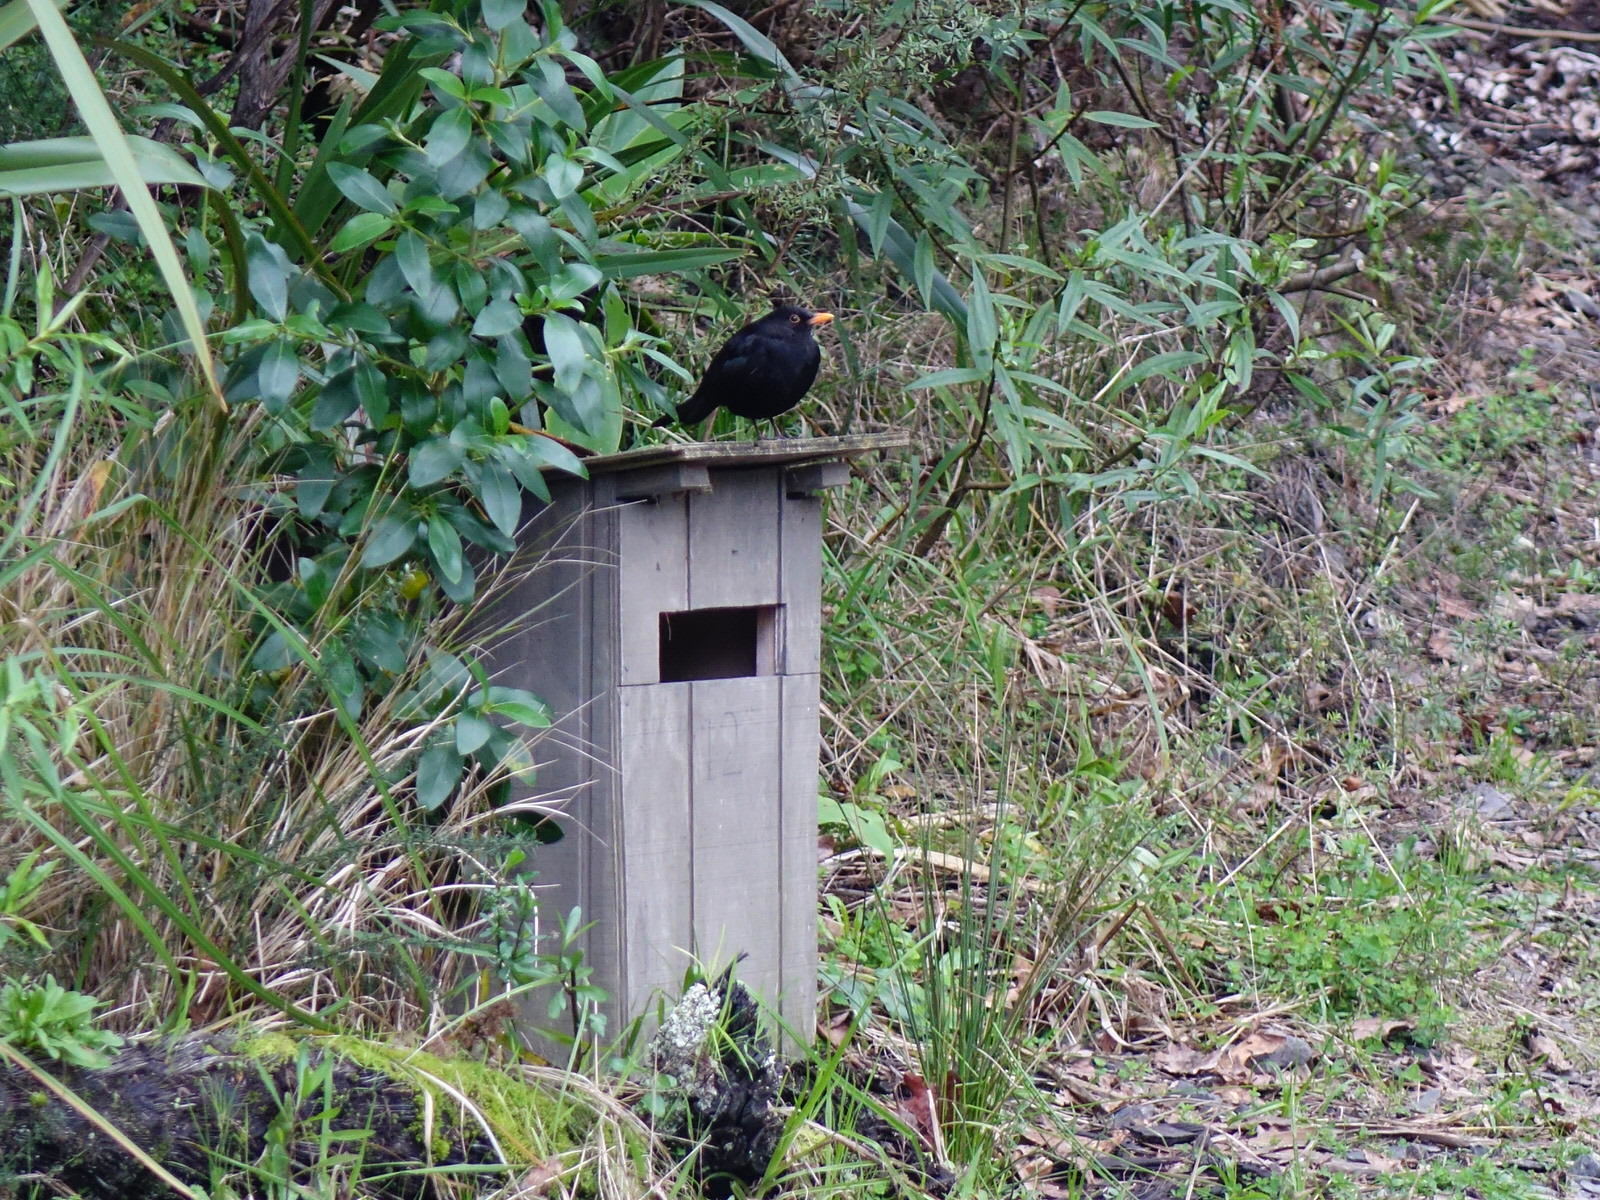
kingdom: Animalia
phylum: Chordata
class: Aves
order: Passeriformes
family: Turdidae
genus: Turdus
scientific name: Turdus merula
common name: Common blackbird
